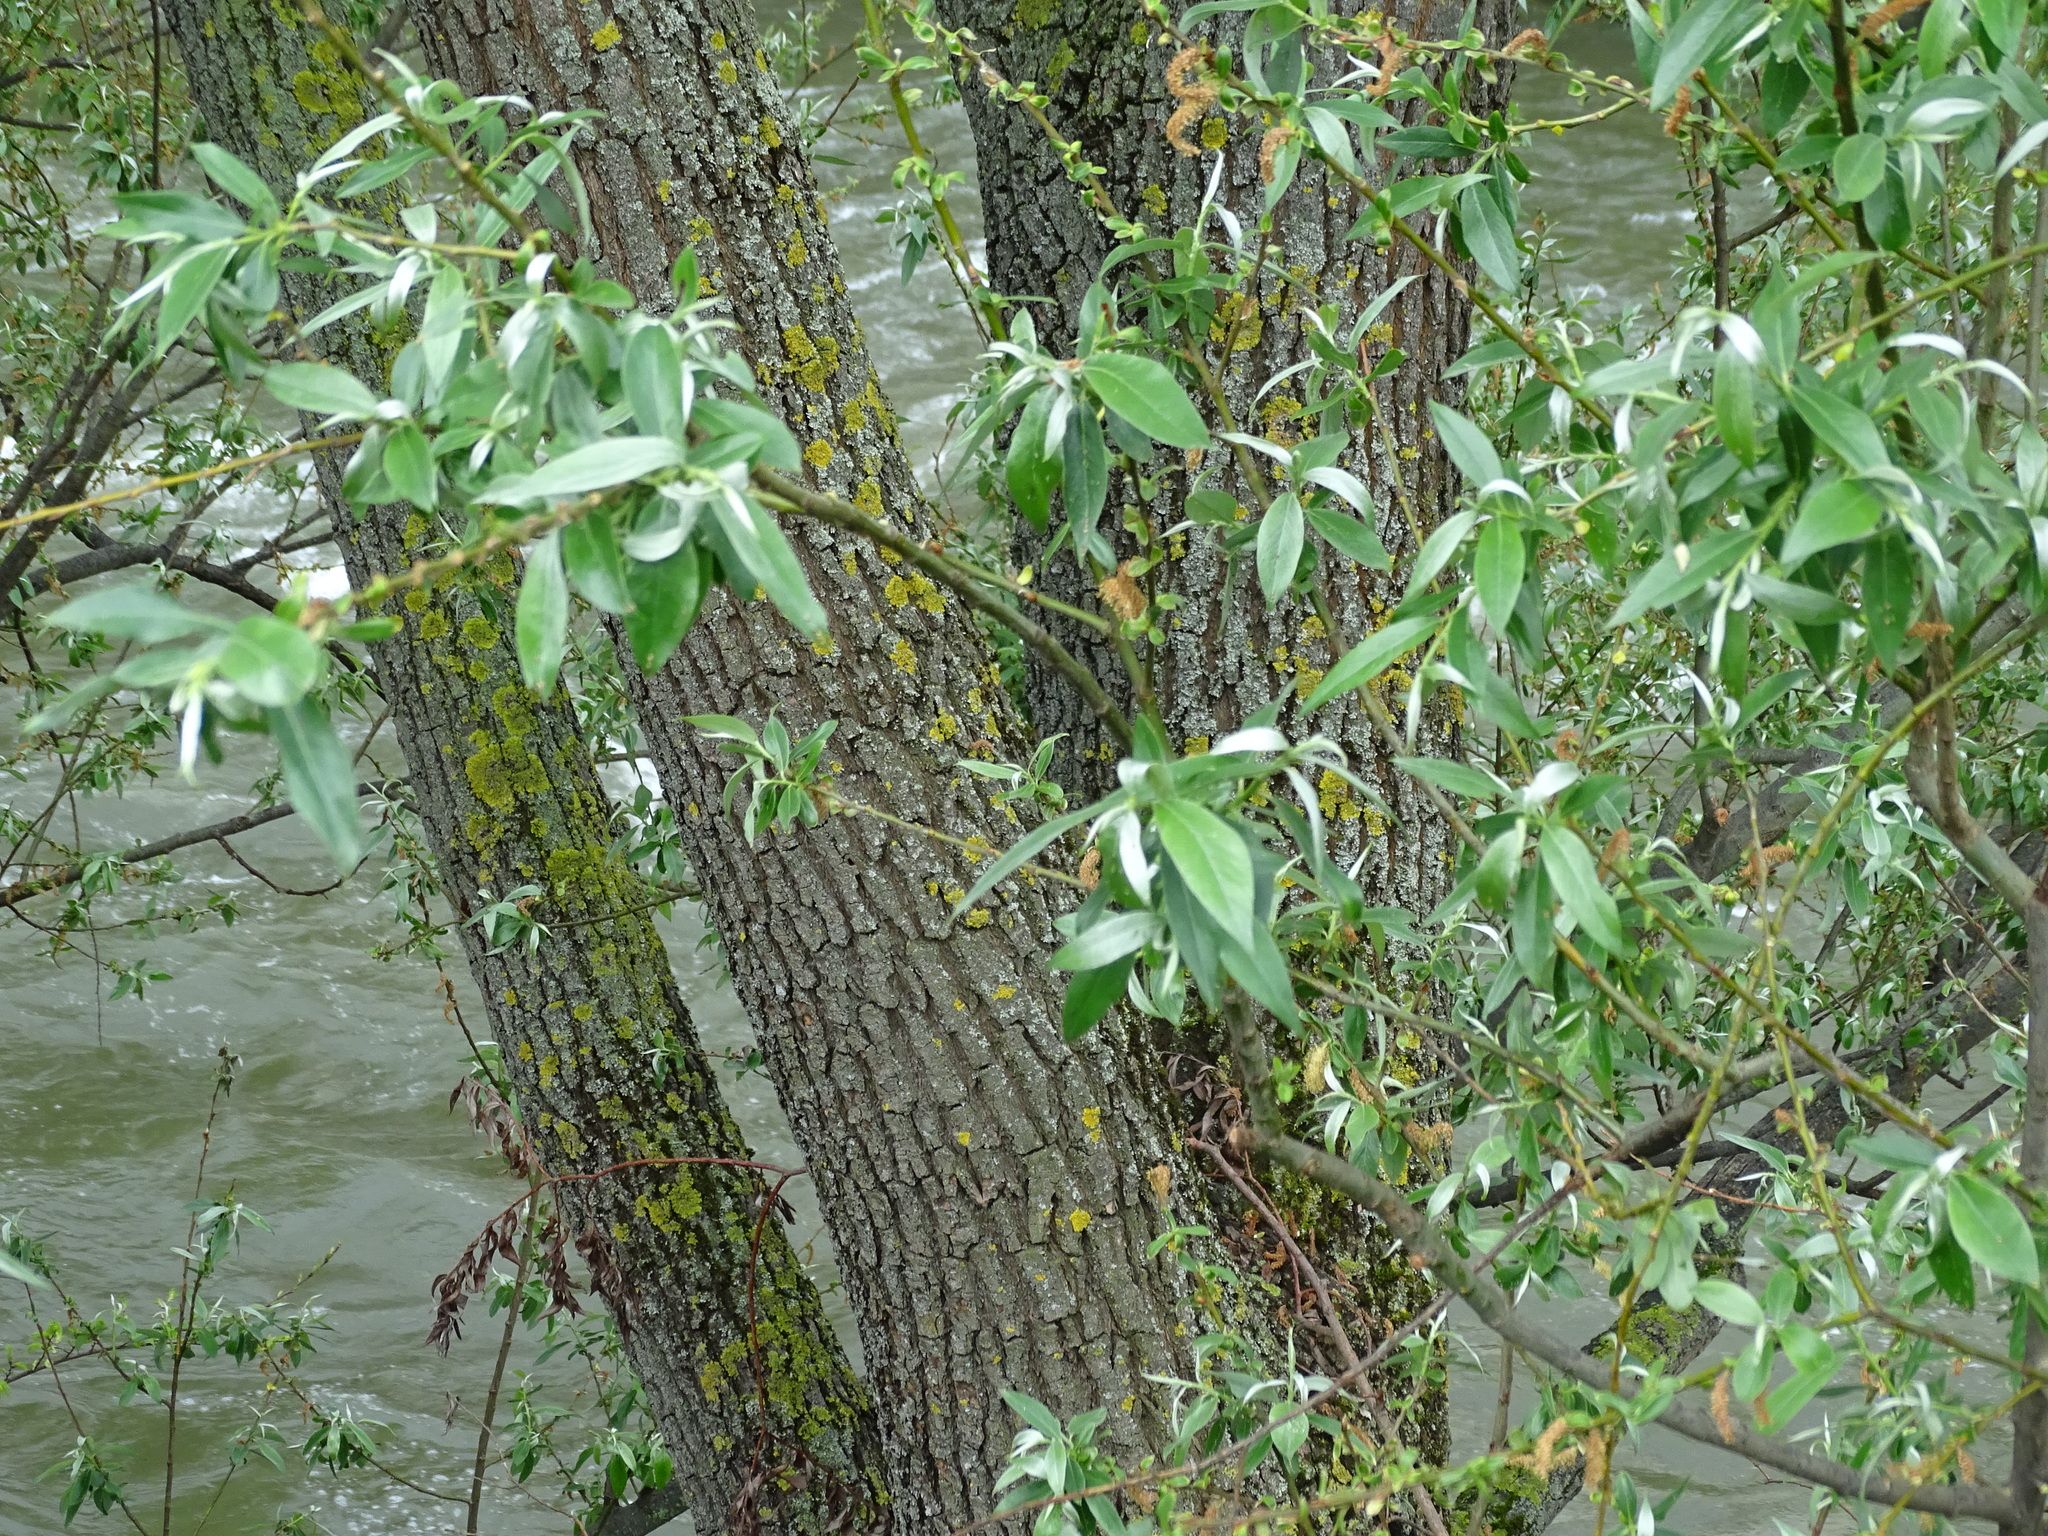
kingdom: Plantae
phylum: Tracheophyta
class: Magnoliopsida
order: Malpighiales
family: Salicaceae
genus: Salix
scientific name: Salix alba
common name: White willow
